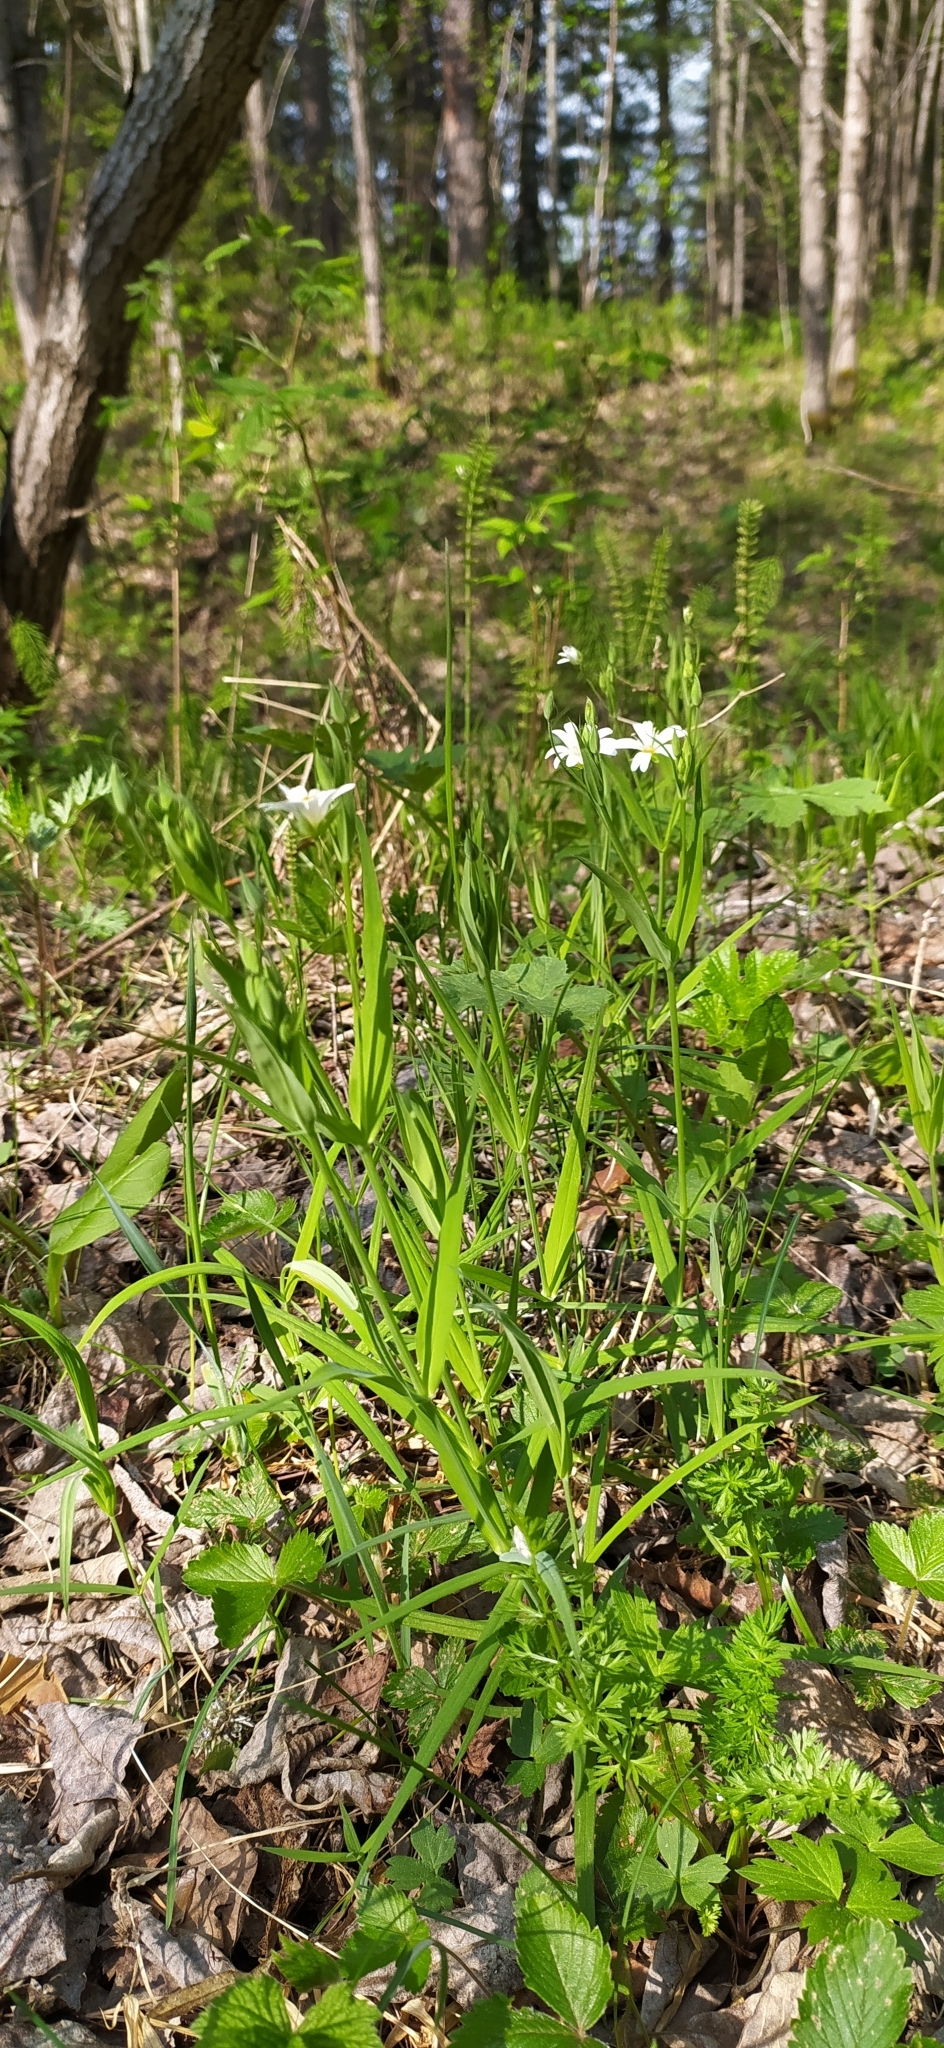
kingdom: Plantae
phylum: Tracheophyta
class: Magnoliopsida
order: Caryophyllales
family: Caryophyllaceae
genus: Rabelera
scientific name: Rabelera holostea
